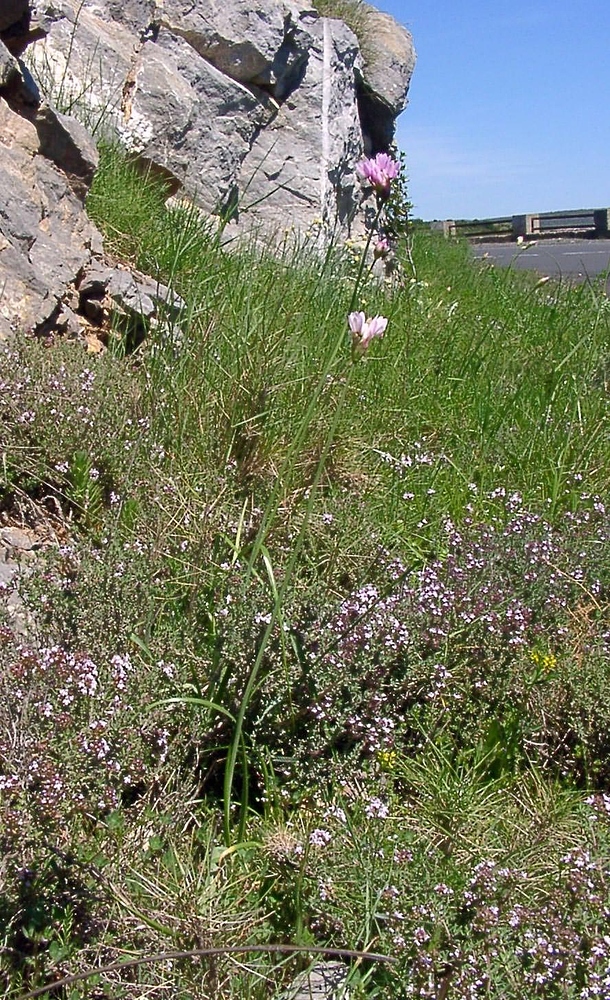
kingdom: Plantae
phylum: Tracheophyta
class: Liliopsida
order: Asparagales
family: Amaryllidaceae
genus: Allium
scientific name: Allium roseum
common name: Rosy garlic
